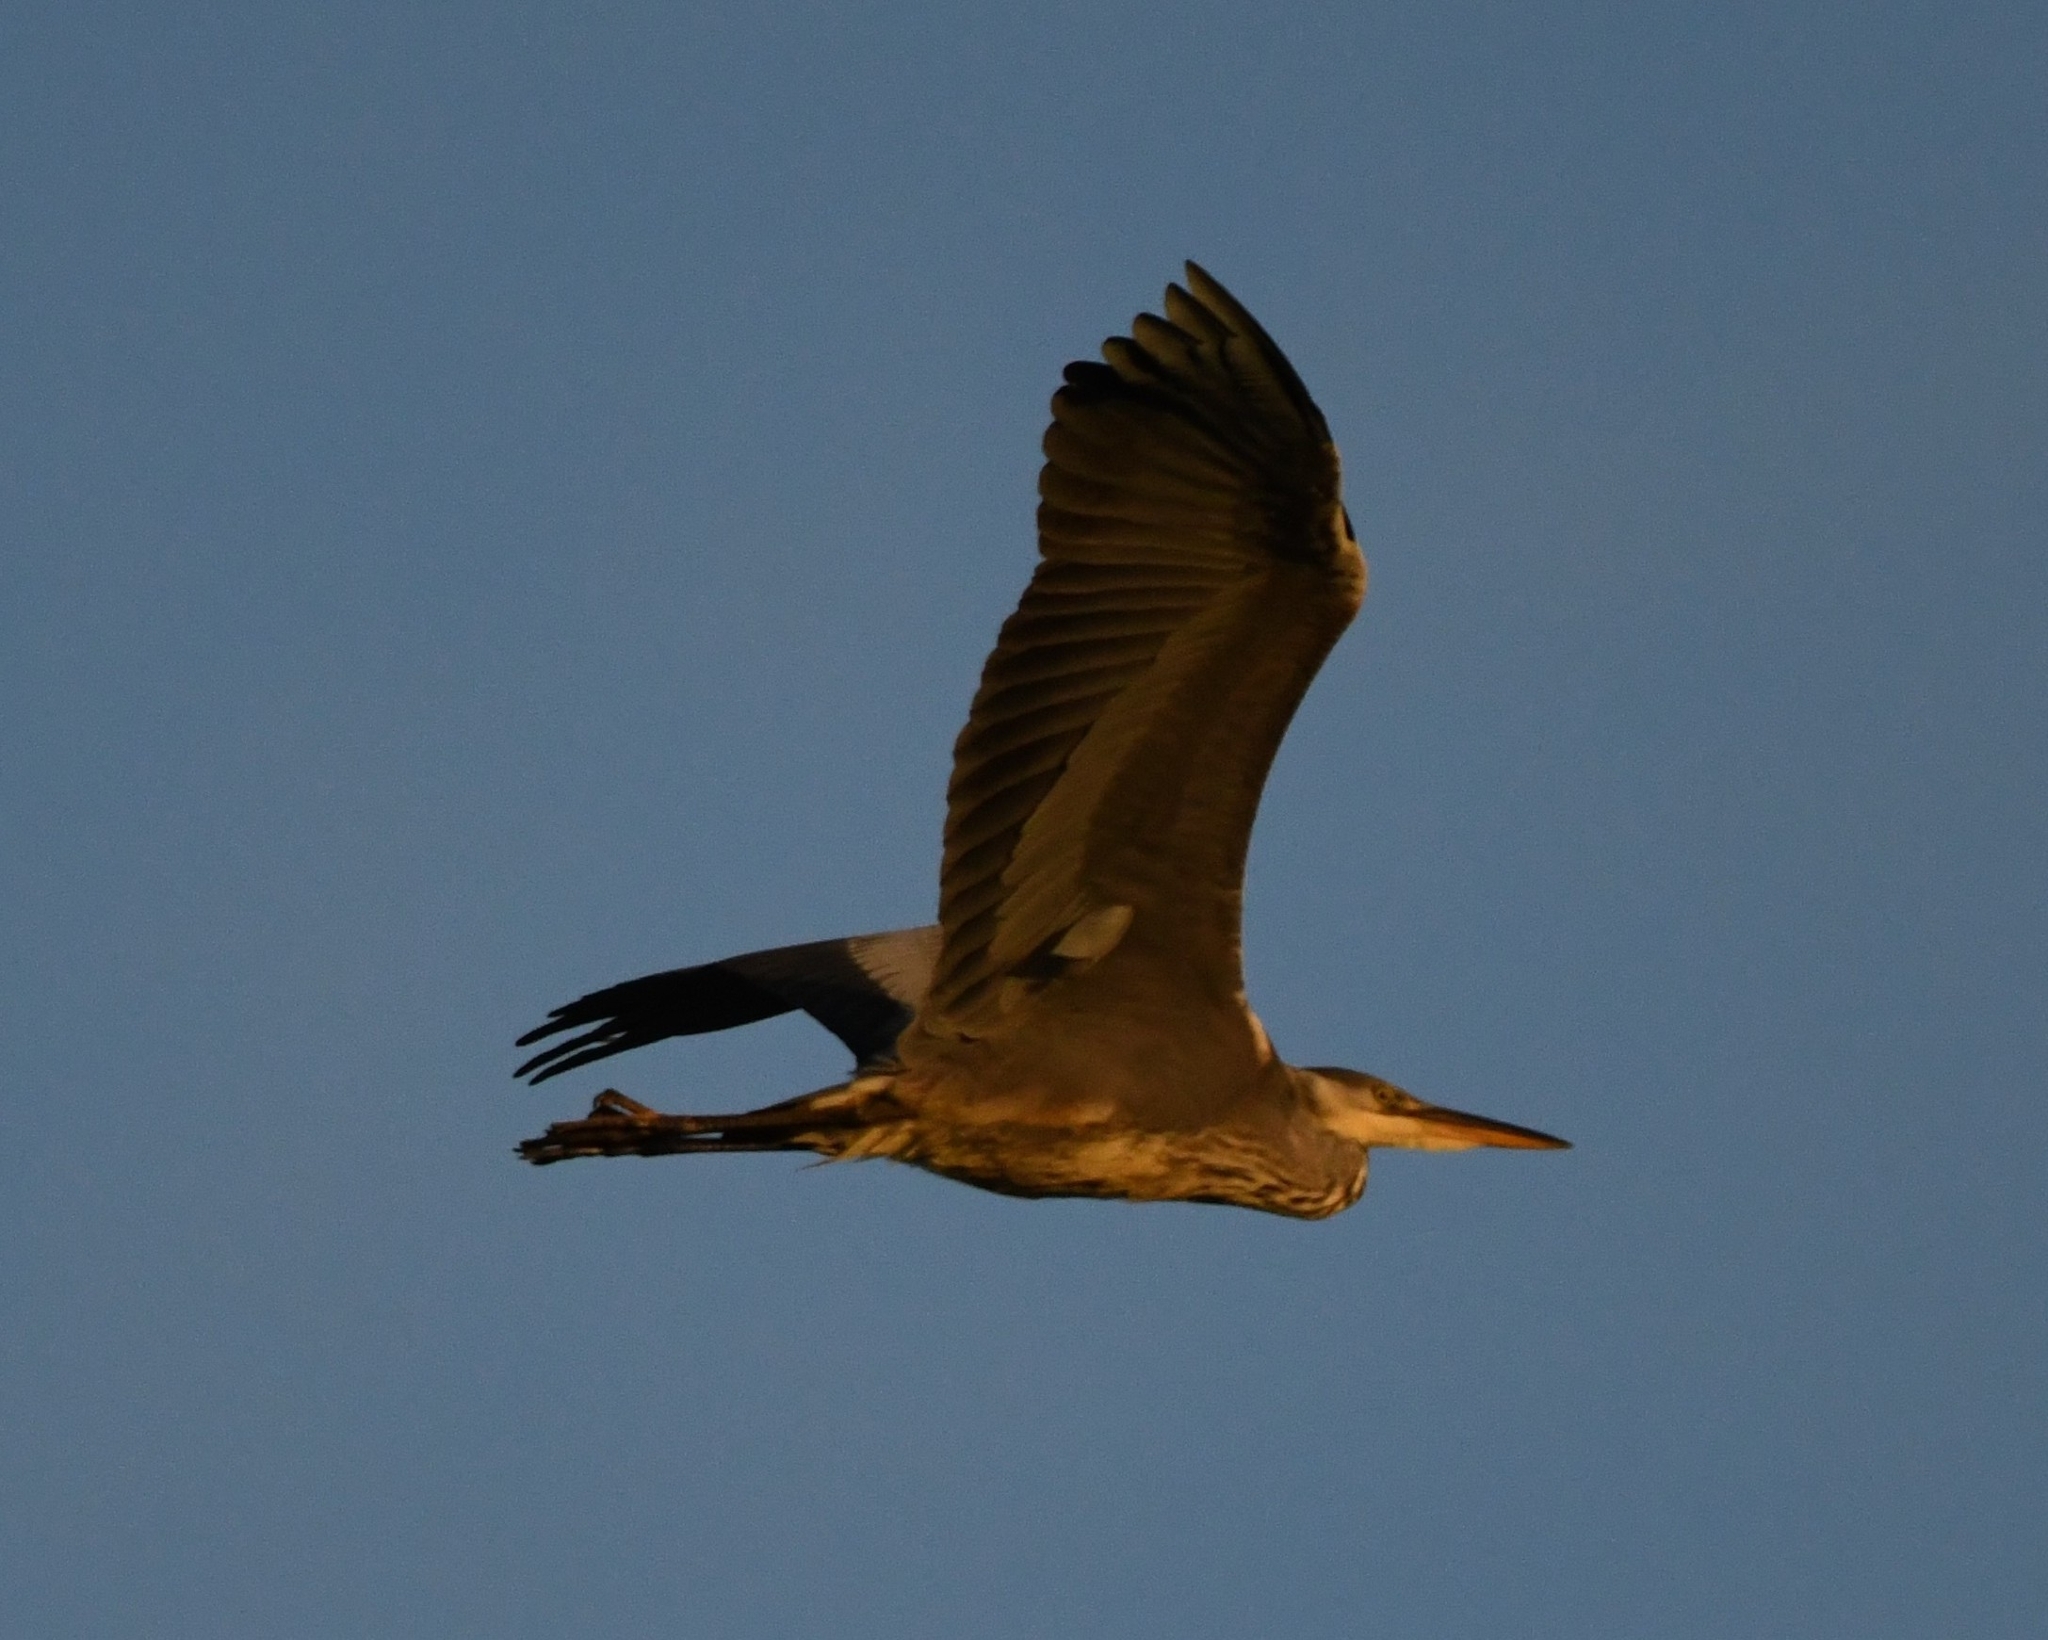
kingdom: Animalia
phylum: Chordata
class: Aves
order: Pelecaniformes
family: Ardeidae
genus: Ardea
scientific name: Ardea cinerea
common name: Grey heron
